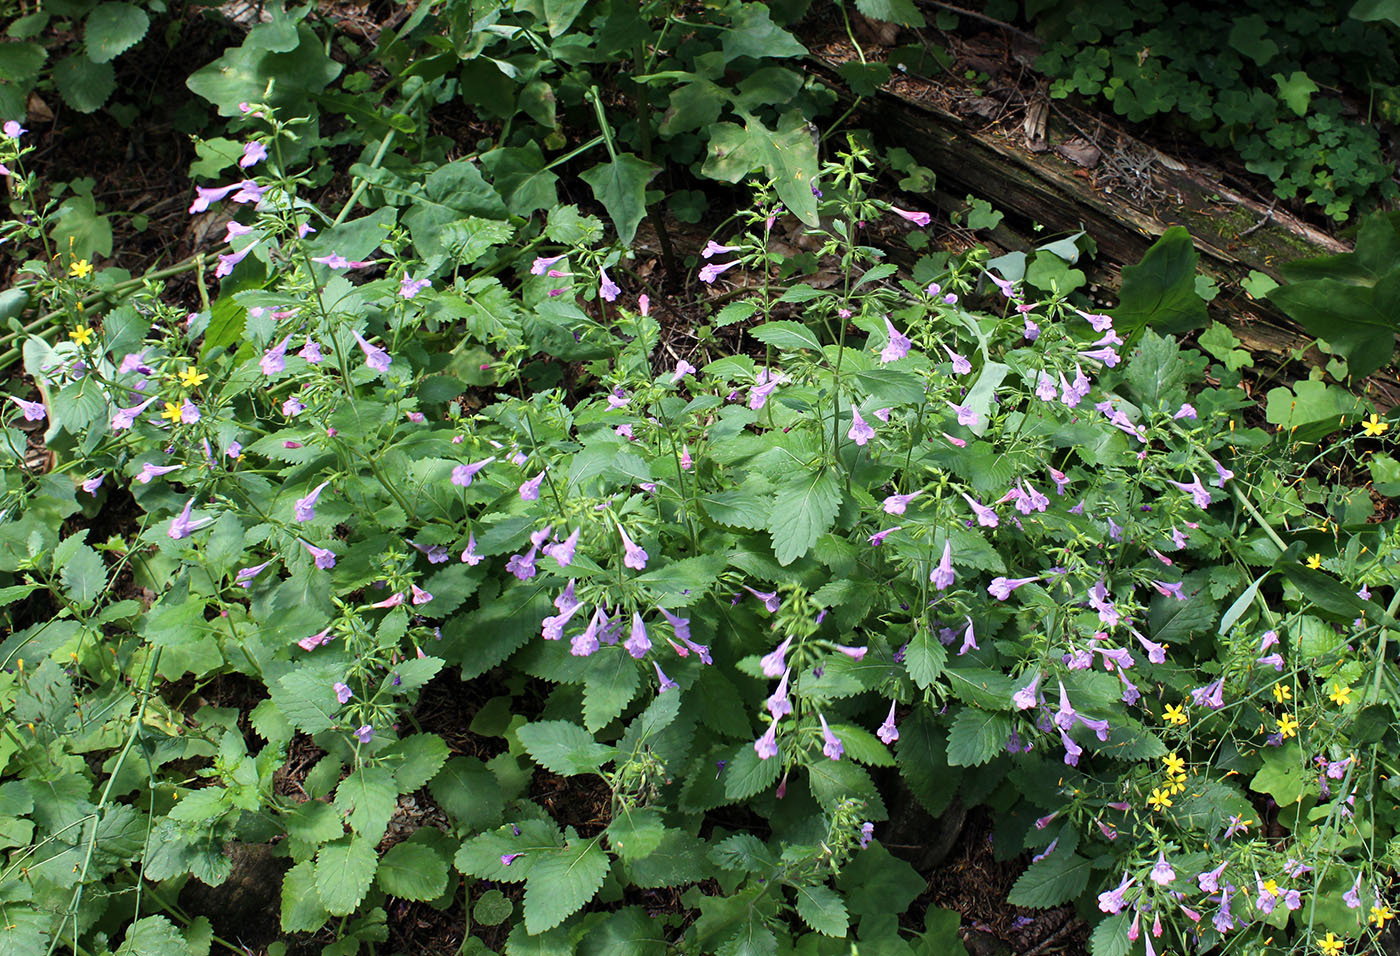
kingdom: Plantae
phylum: Tracheophyta
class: Magnoliopsida
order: Lamiales
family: Lamiaceae
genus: Clinopodium
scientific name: Clinopodium grandiflorum
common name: Greater calamint
